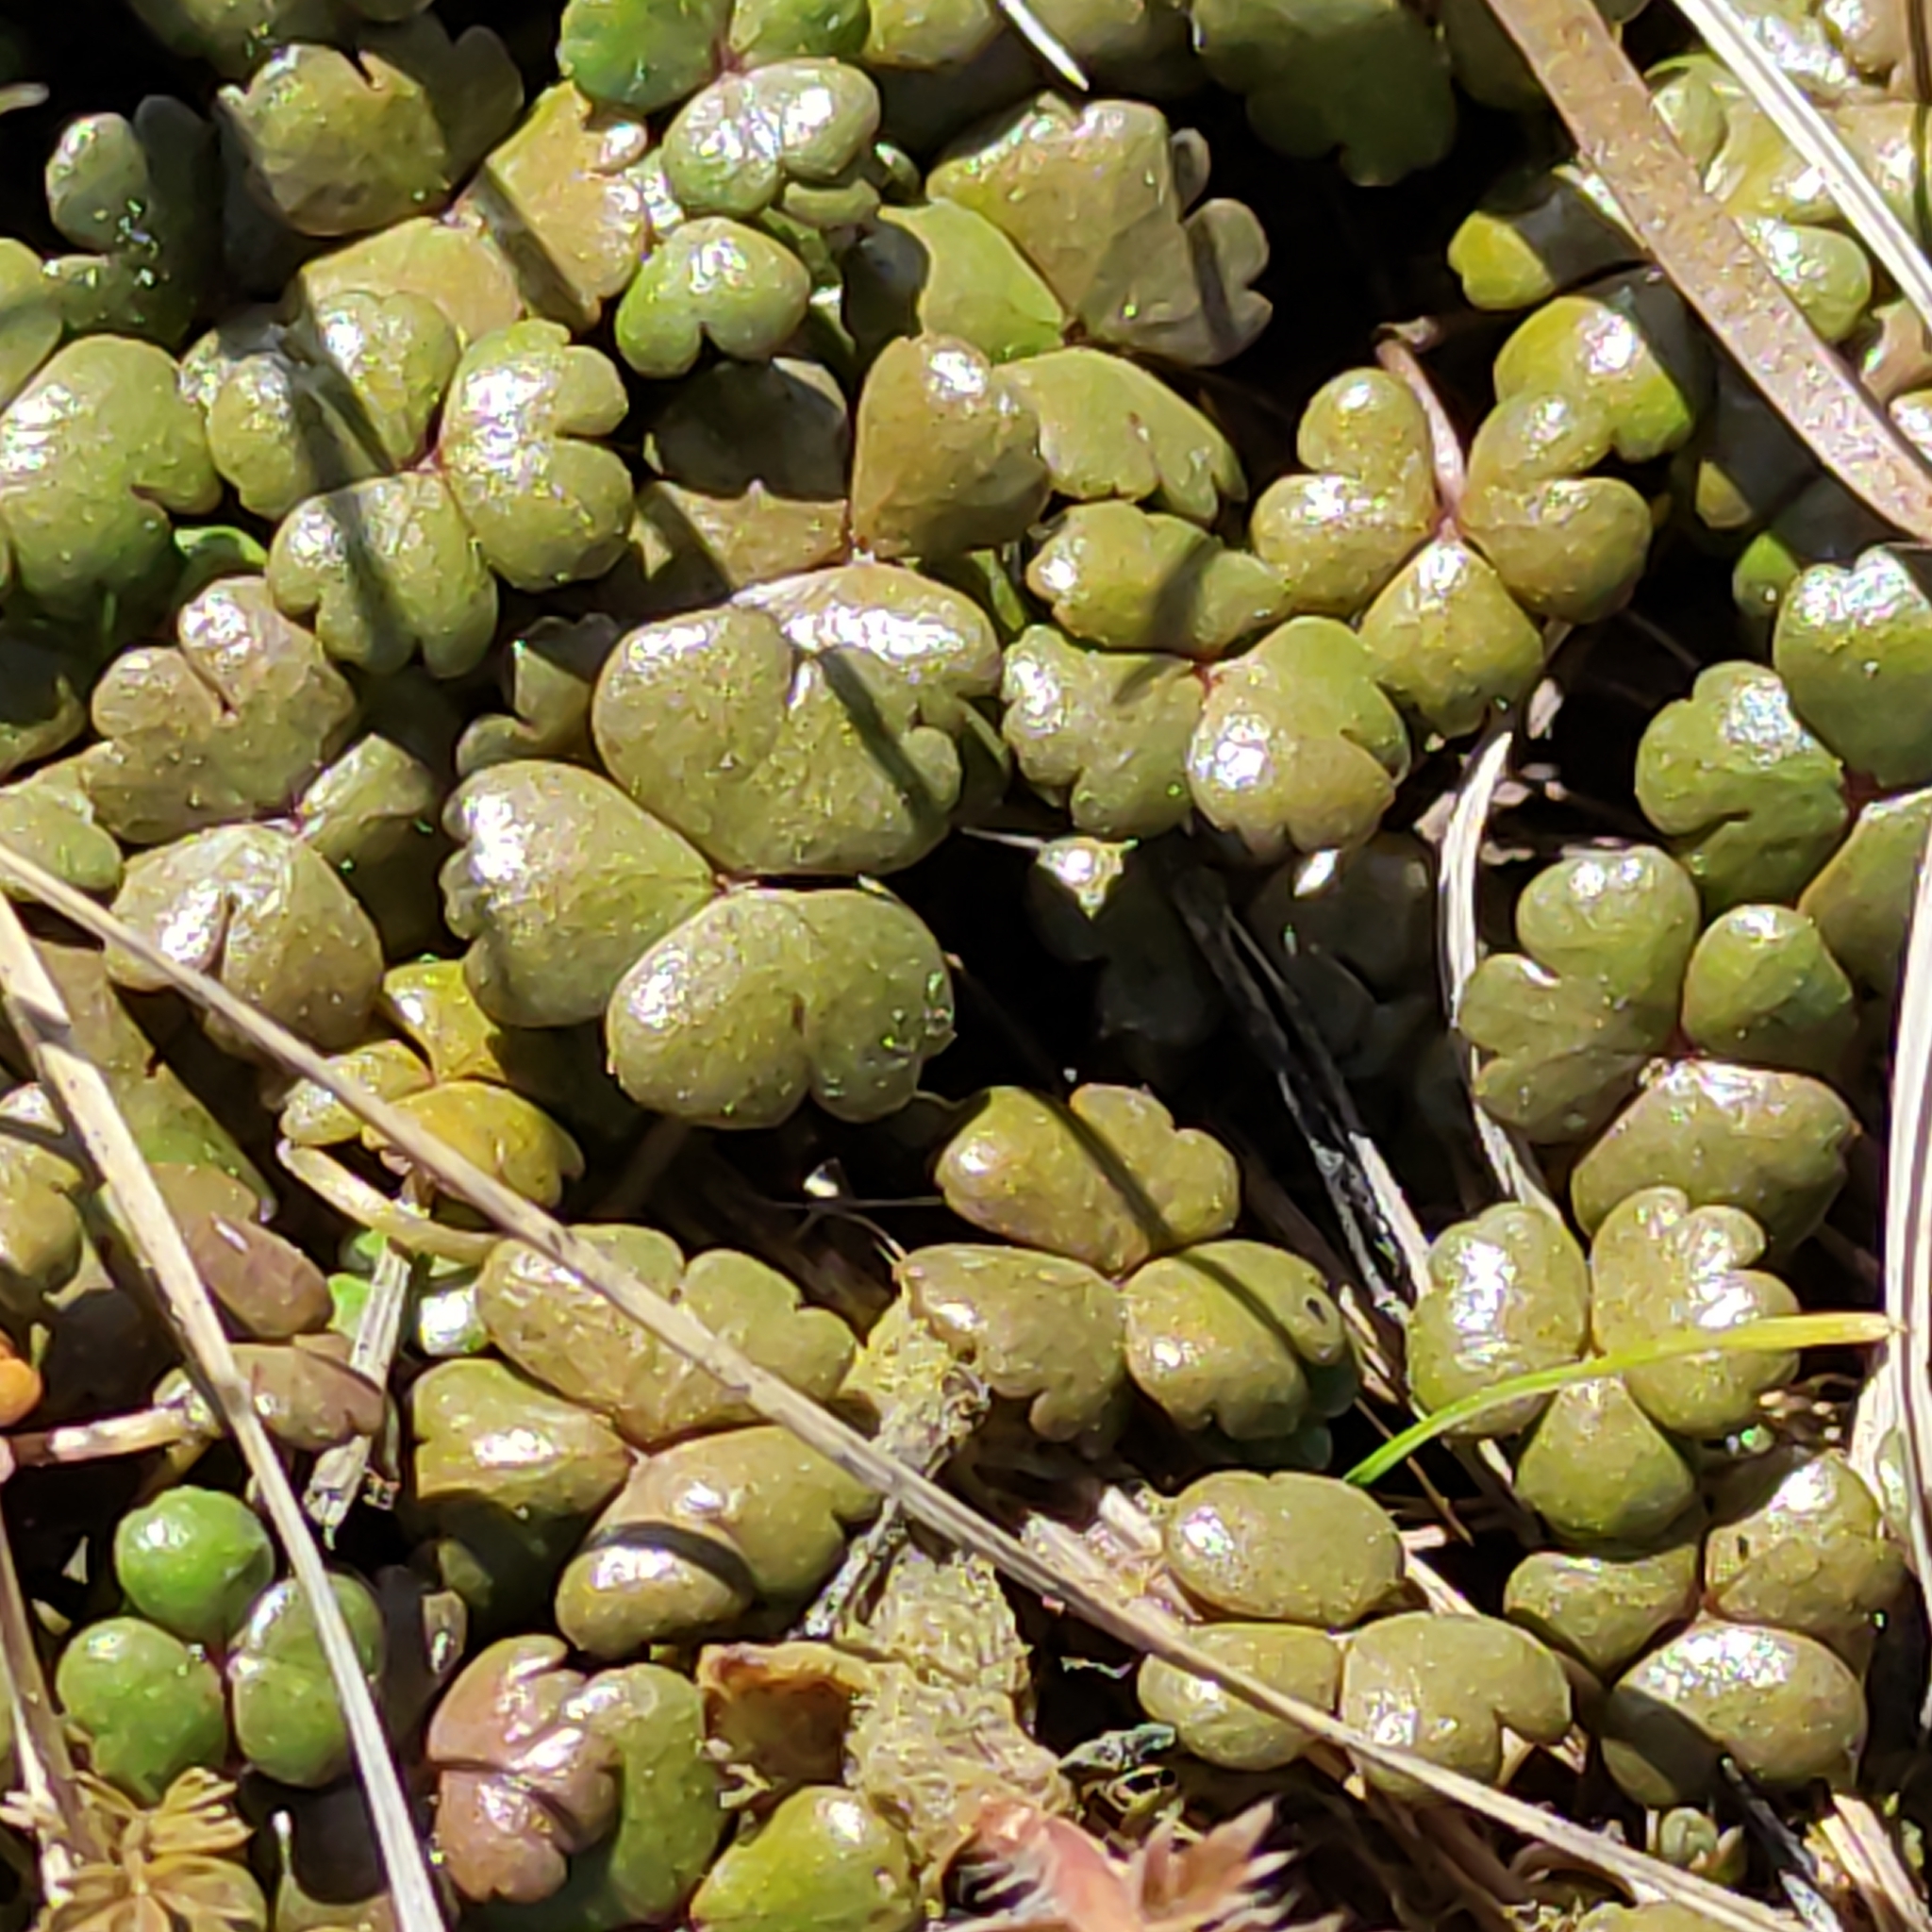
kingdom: Plantae
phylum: Tracheophyta
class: Magnoliopsida
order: Apiales
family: Araliaceae
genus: Hydrocotyle
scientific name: Hydrocotyle sulcata
